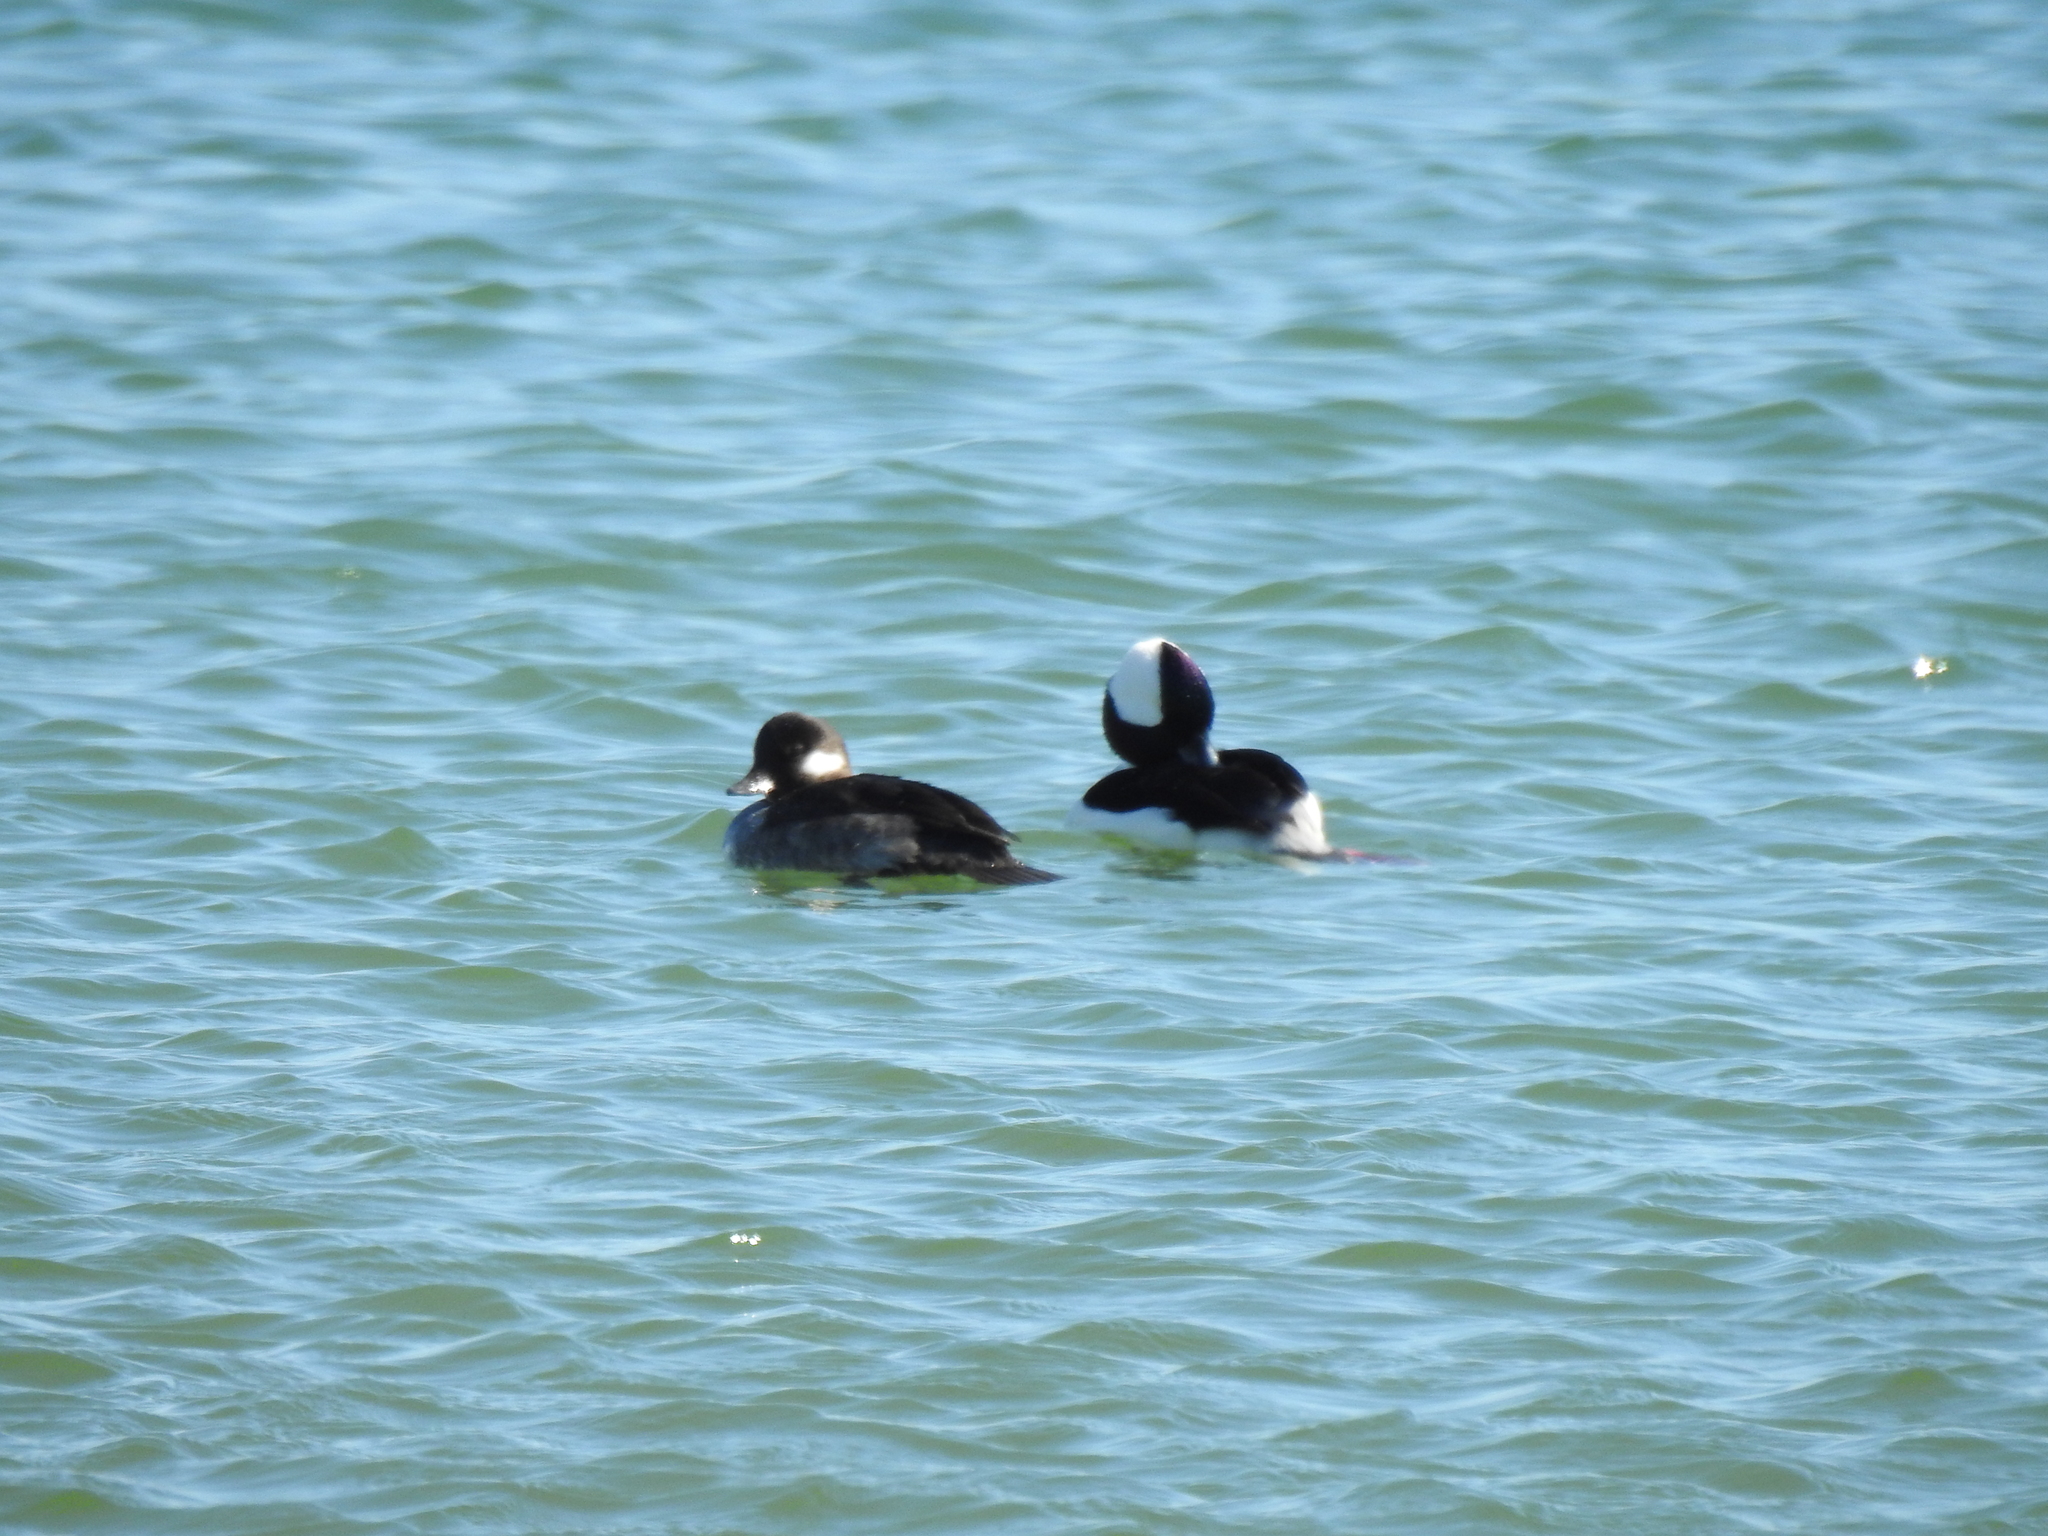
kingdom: Animalia
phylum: Chordata
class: Aves
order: Anseriformes
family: Anatidae
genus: Bucephala
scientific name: Bucephala albeola
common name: Bufflehead
